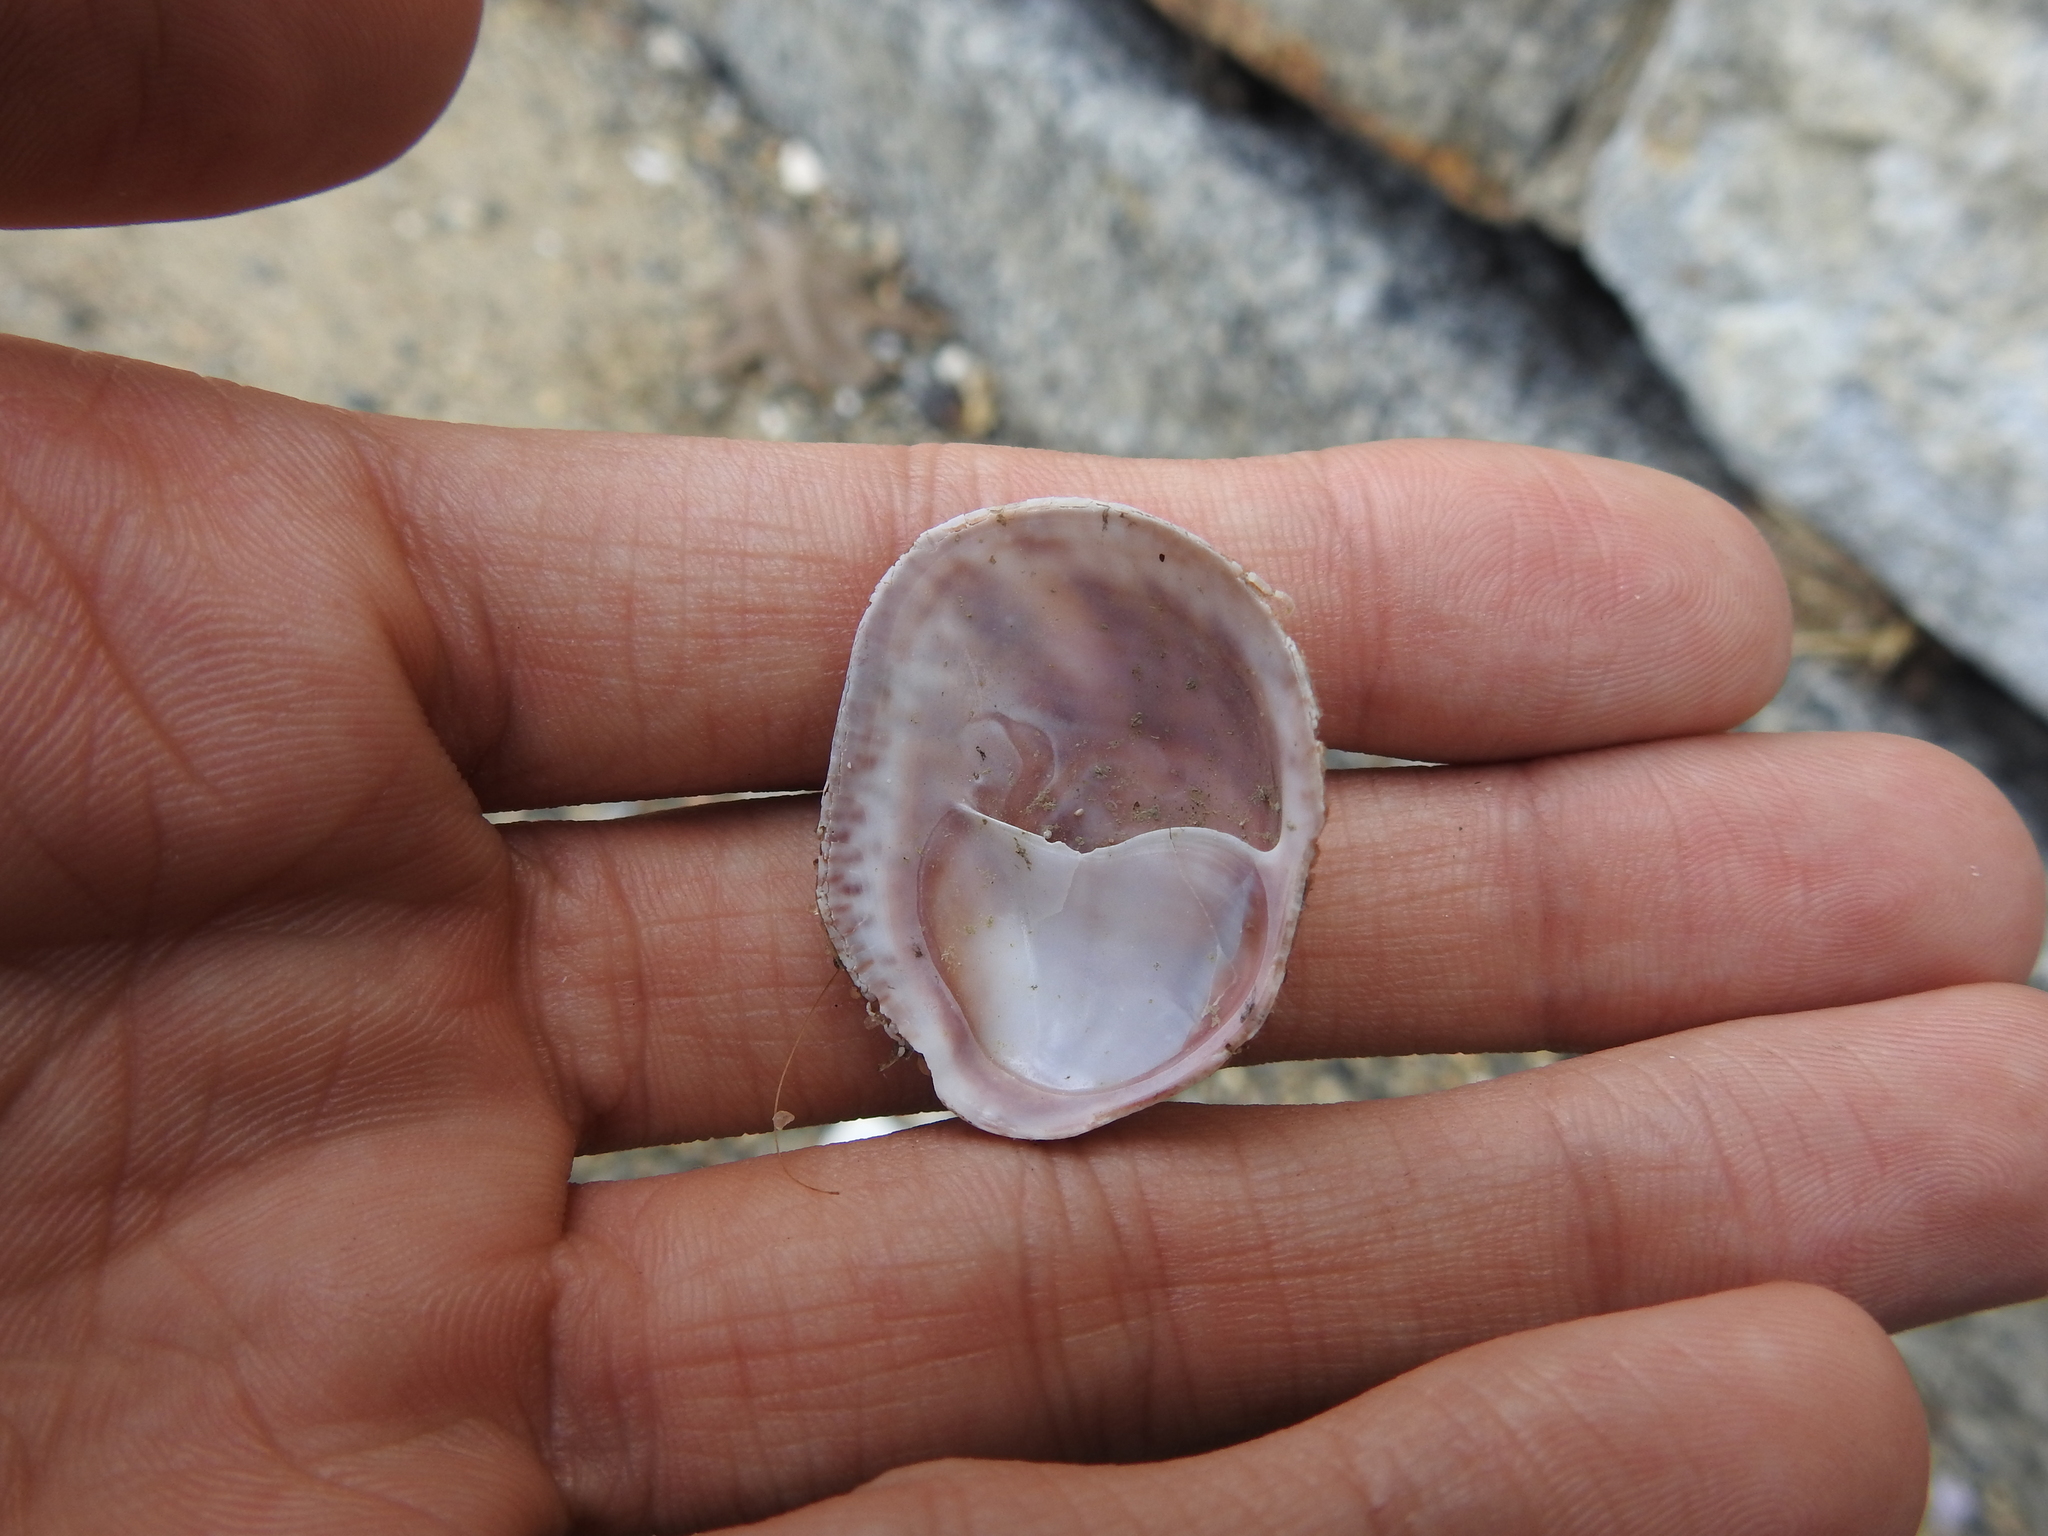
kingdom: Animalia
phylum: Mollusca
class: Gastropoda
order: Littorinimorpha
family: Calyptraeidae
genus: Crepidula
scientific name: Crepidula fornicata
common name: Slipper limpet
